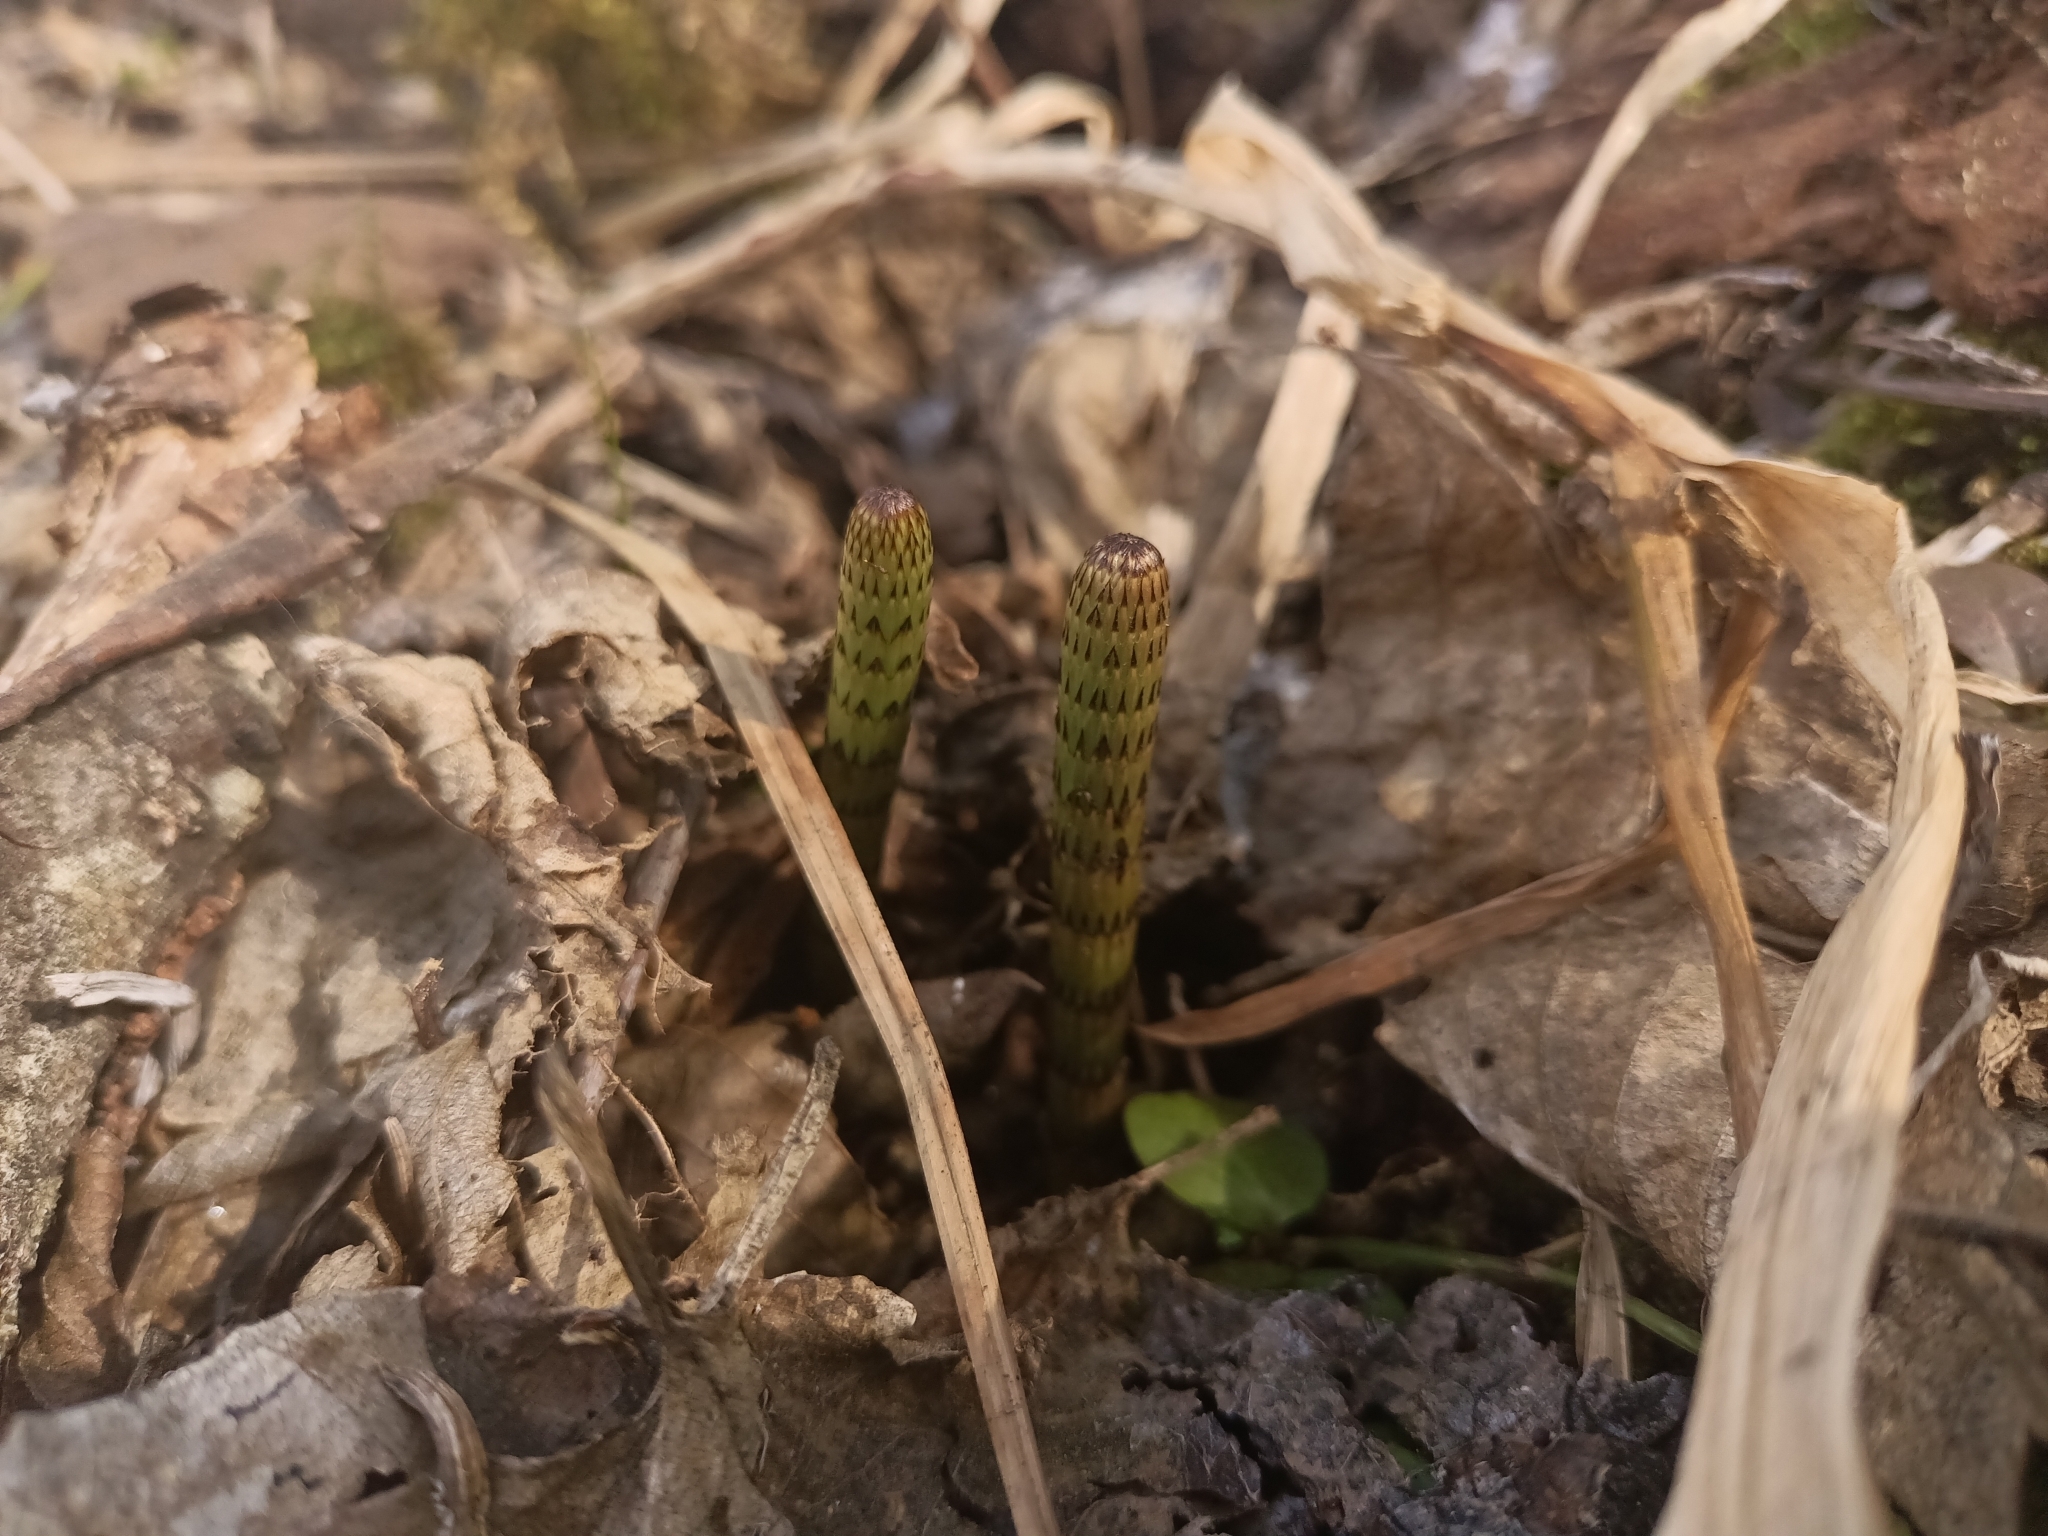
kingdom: Plantae
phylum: Tracheophyta
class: Polypodiopsida
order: Equisetales
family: Equisetaceae
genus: Equisetum
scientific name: Equisetum fluviatile
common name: Water horsetail
